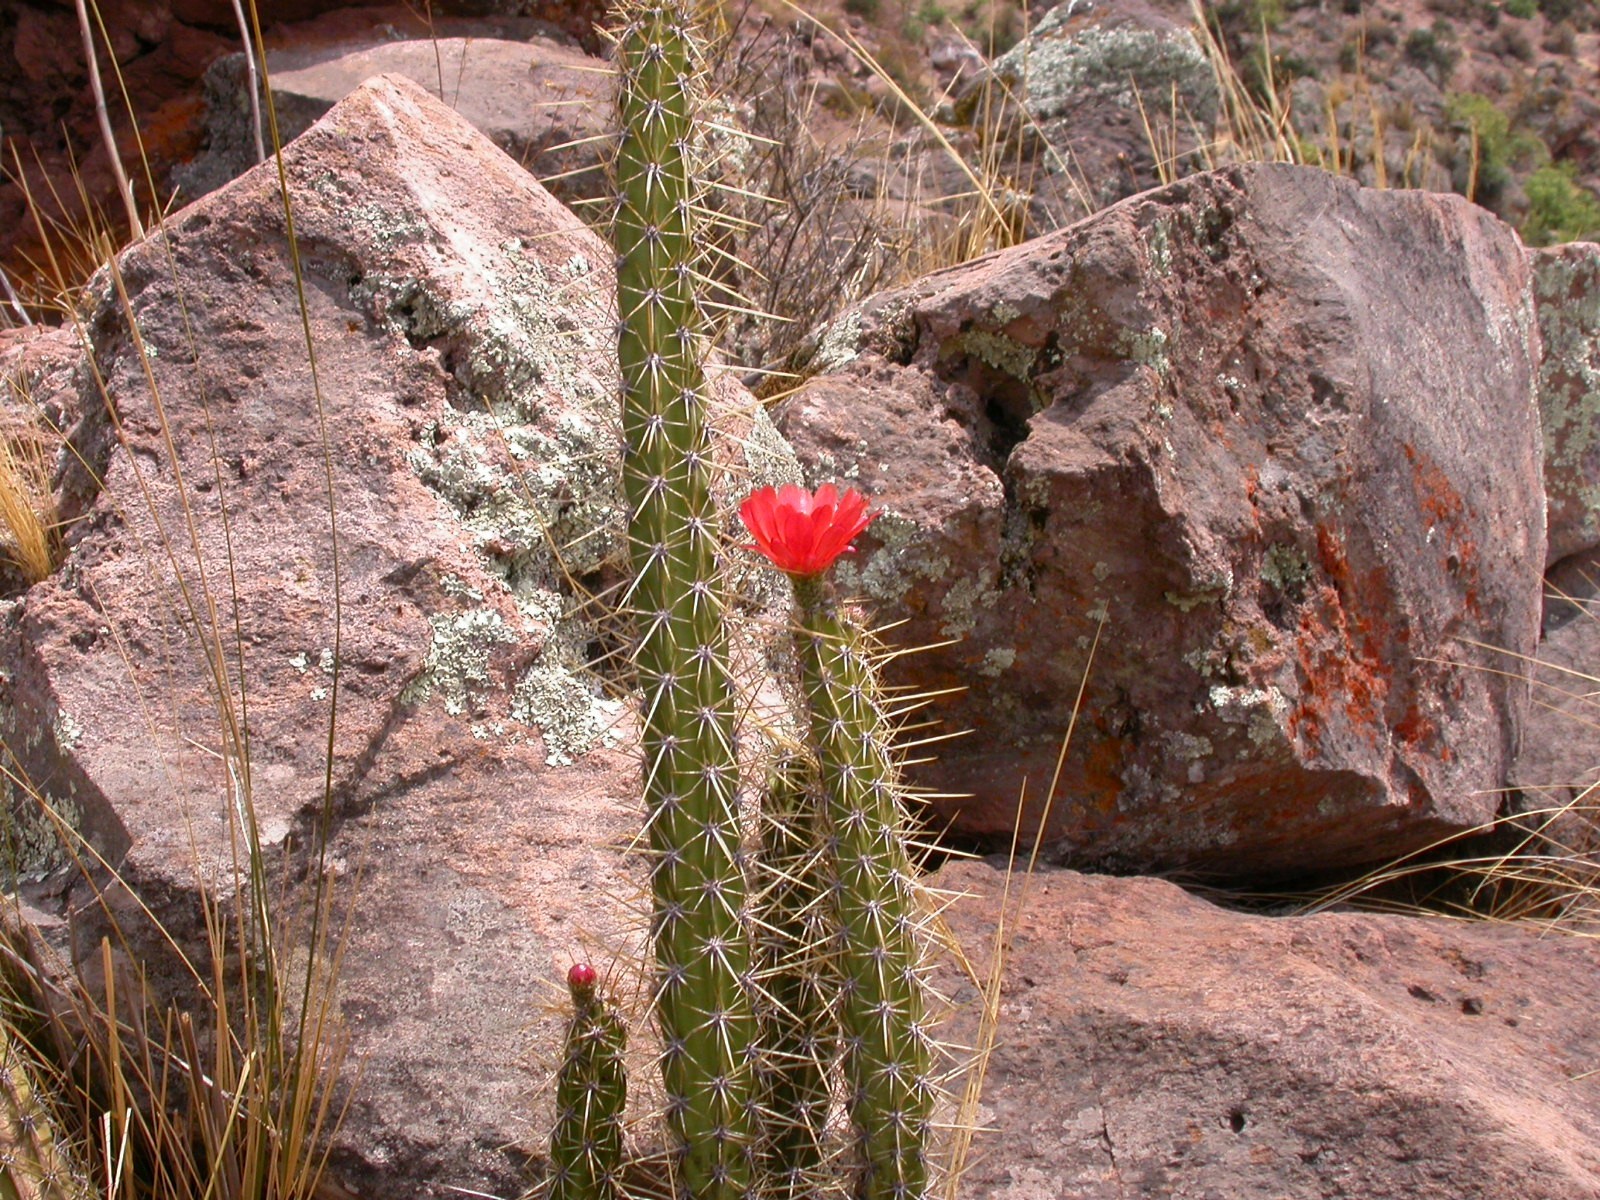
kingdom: Plantae
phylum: Tracheophyta
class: Magnoliopsida
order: Caryophyllales
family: Cactaceae
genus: Corryocactus
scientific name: Corryocactus erectus
